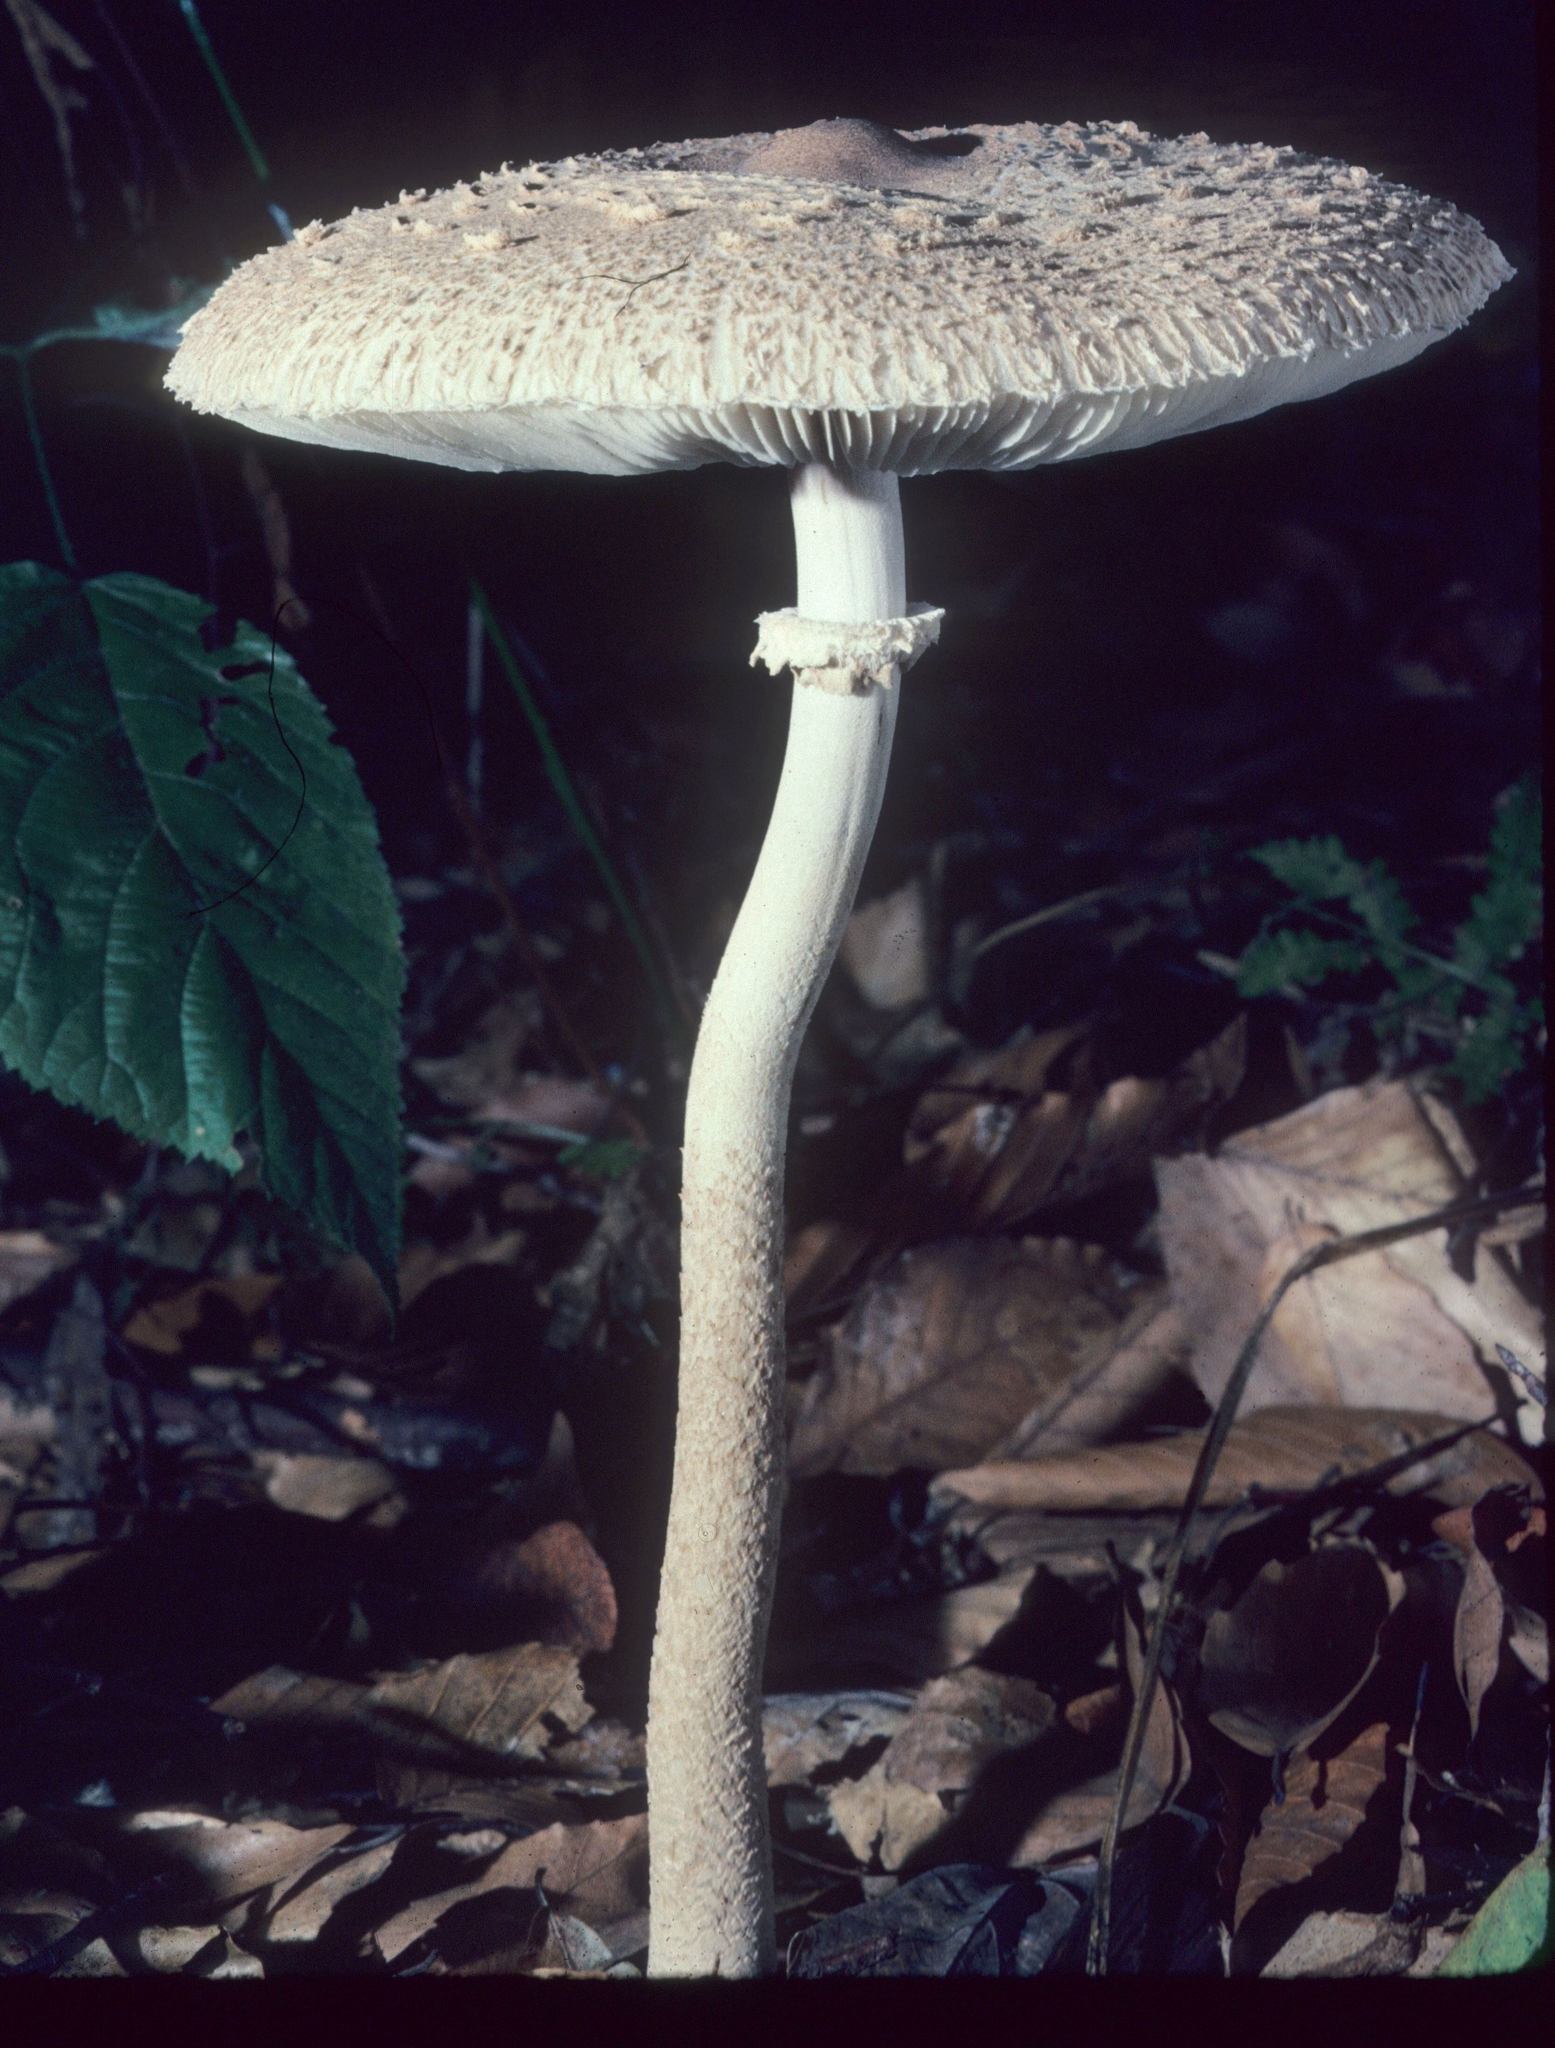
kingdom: Fungi
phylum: Basidiomycota
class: Agaricomycetes
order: Agaricales
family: Agaricaceae
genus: Macrolepiota
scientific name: Macrolepiota prominens
